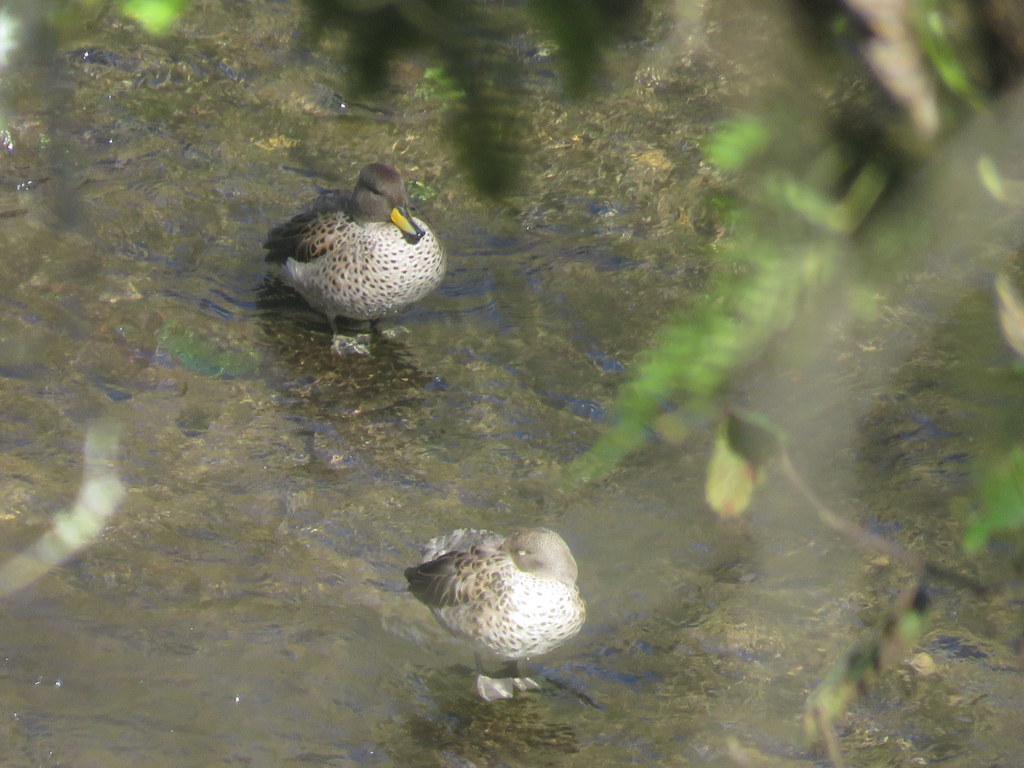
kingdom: Animalia
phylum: Chordata
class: Aves
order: Anseriformes
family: Anatidae
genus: Anas
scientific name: Anas flavirostris
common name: Yellow-billed teal
